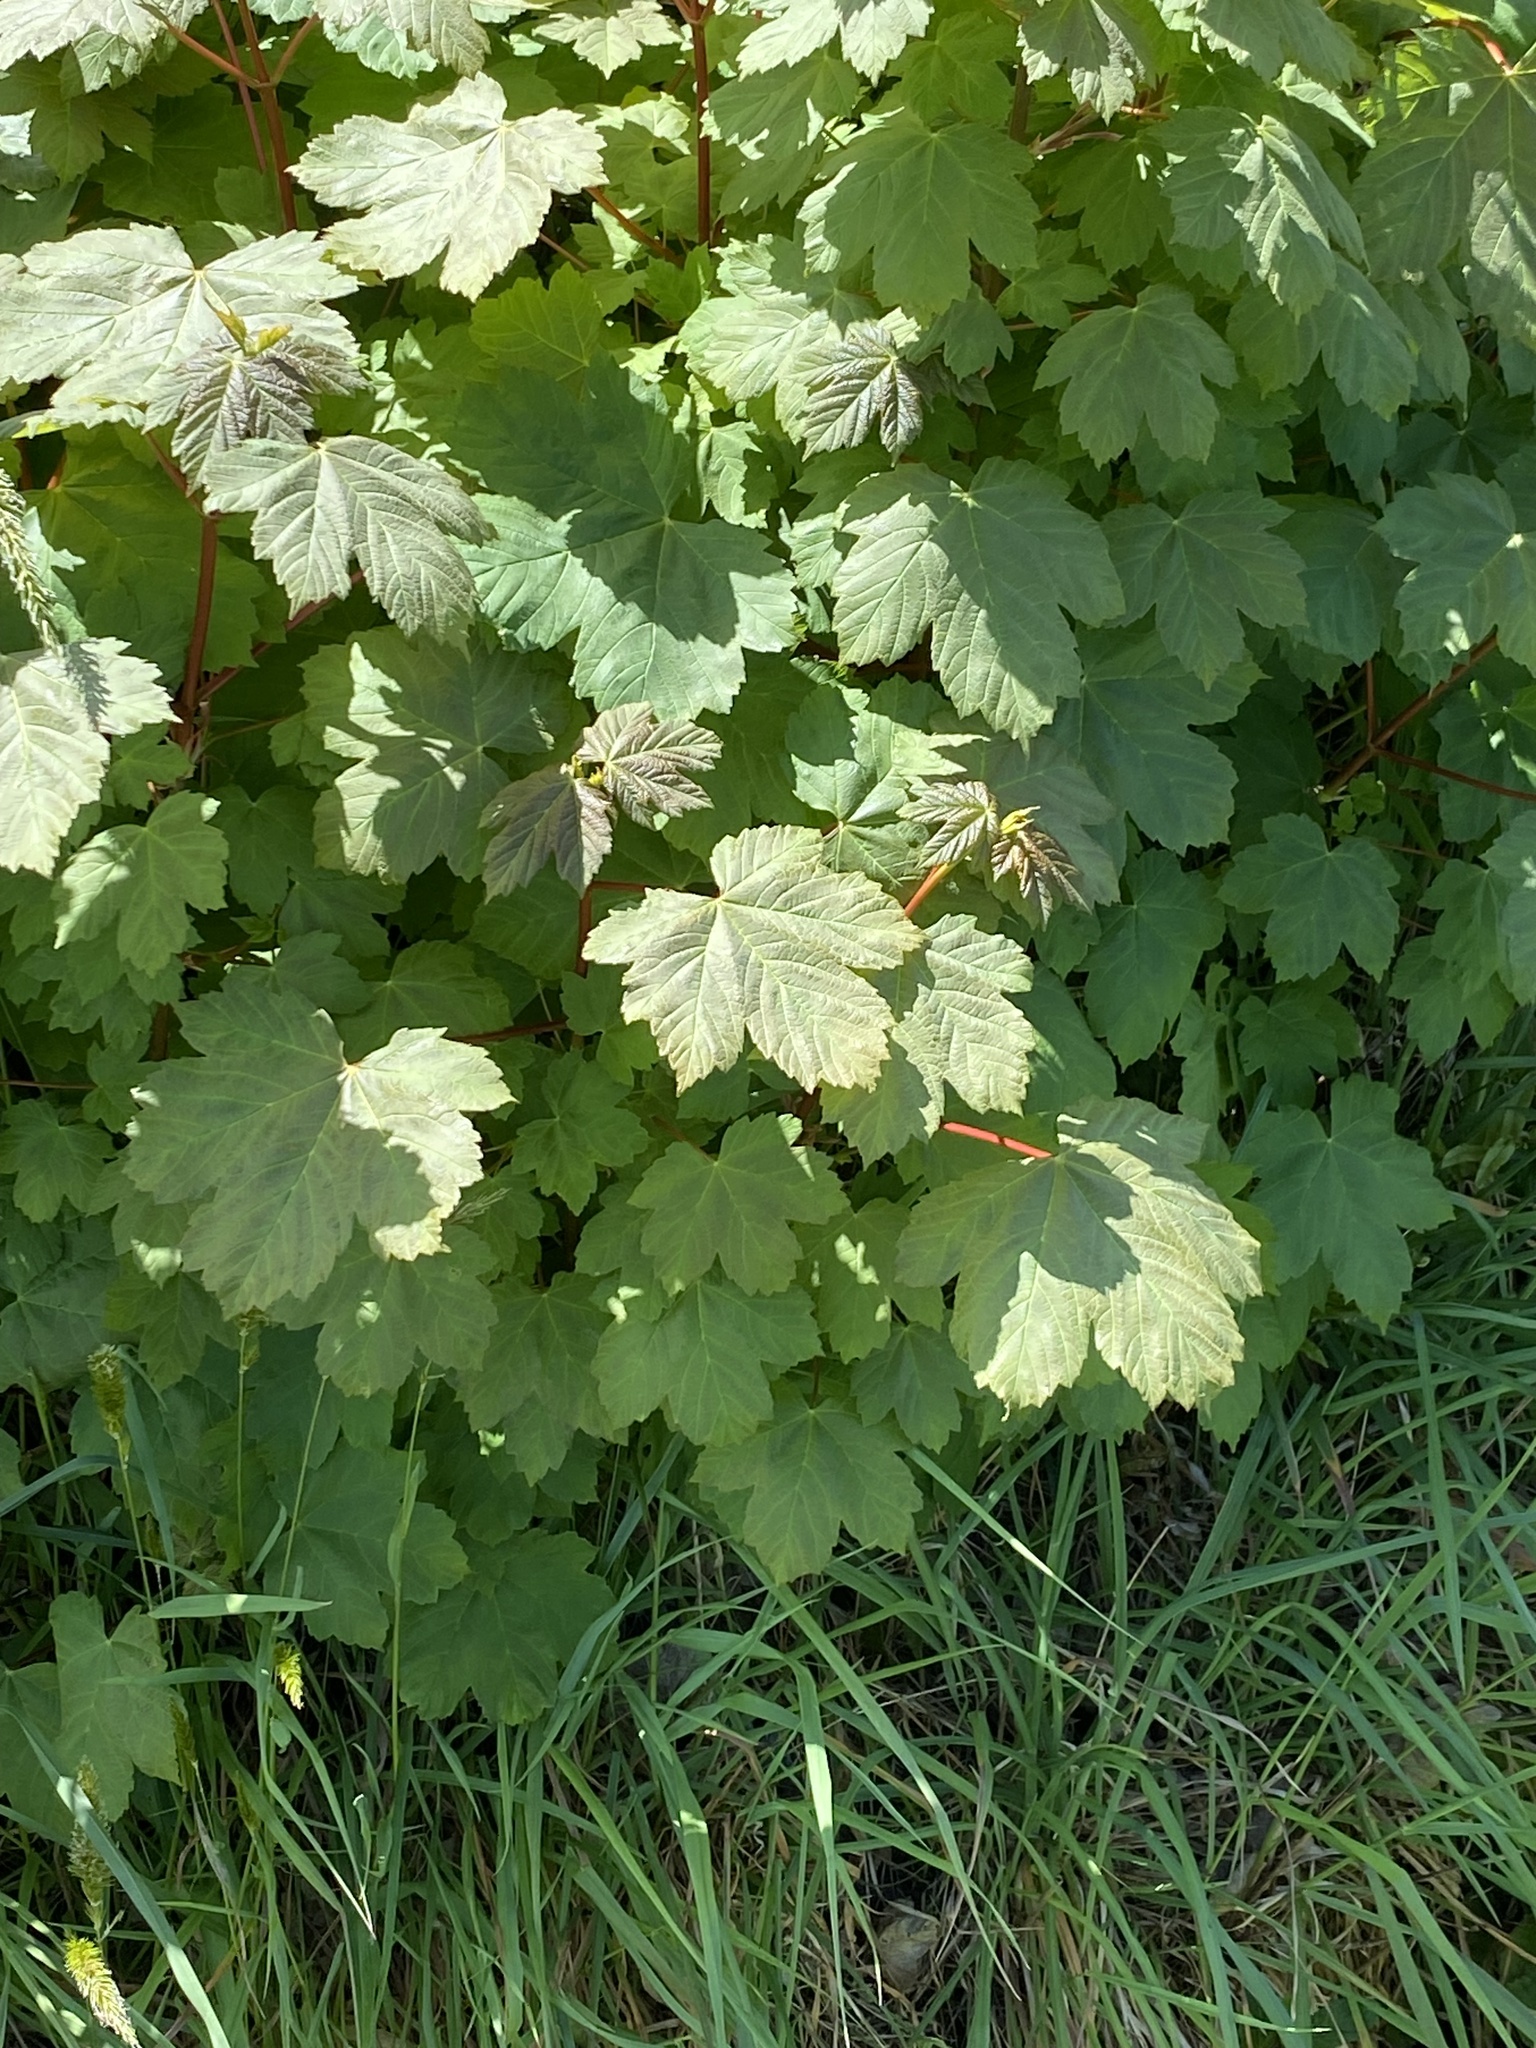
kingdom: Plantae
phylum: Tracheophyta
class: Magnoliopsida
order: Sapindales
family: Sapindaceae
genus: Acer
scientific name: Acer pseudoplatanus
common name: Sycamore
